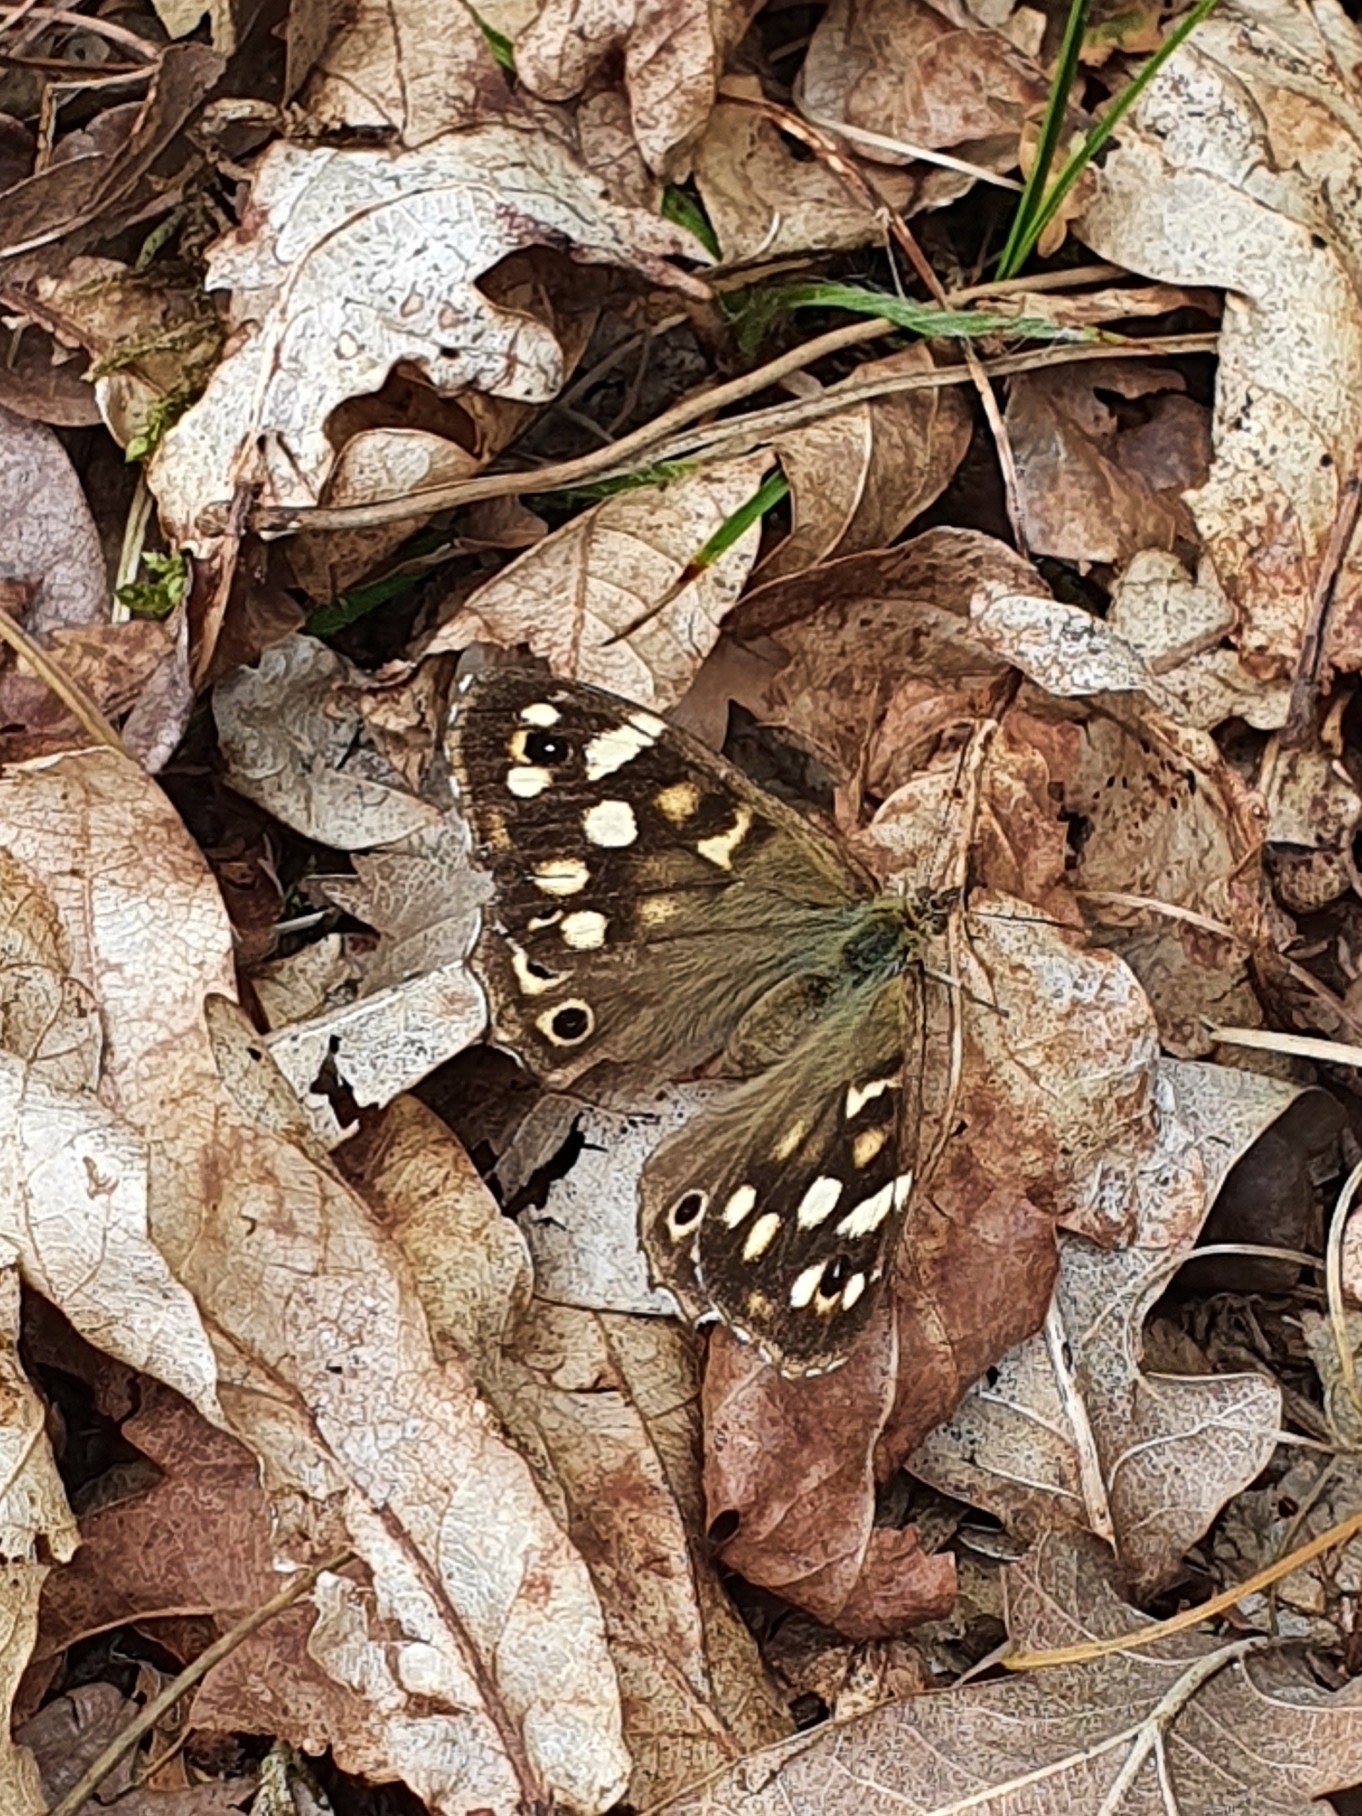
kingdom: Animalia
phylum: Arthropoda
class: Insecta
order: Lepidoptera
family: Nymphalidae
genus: Pararge
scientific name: Pararge aegeria
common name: Speckled wood
